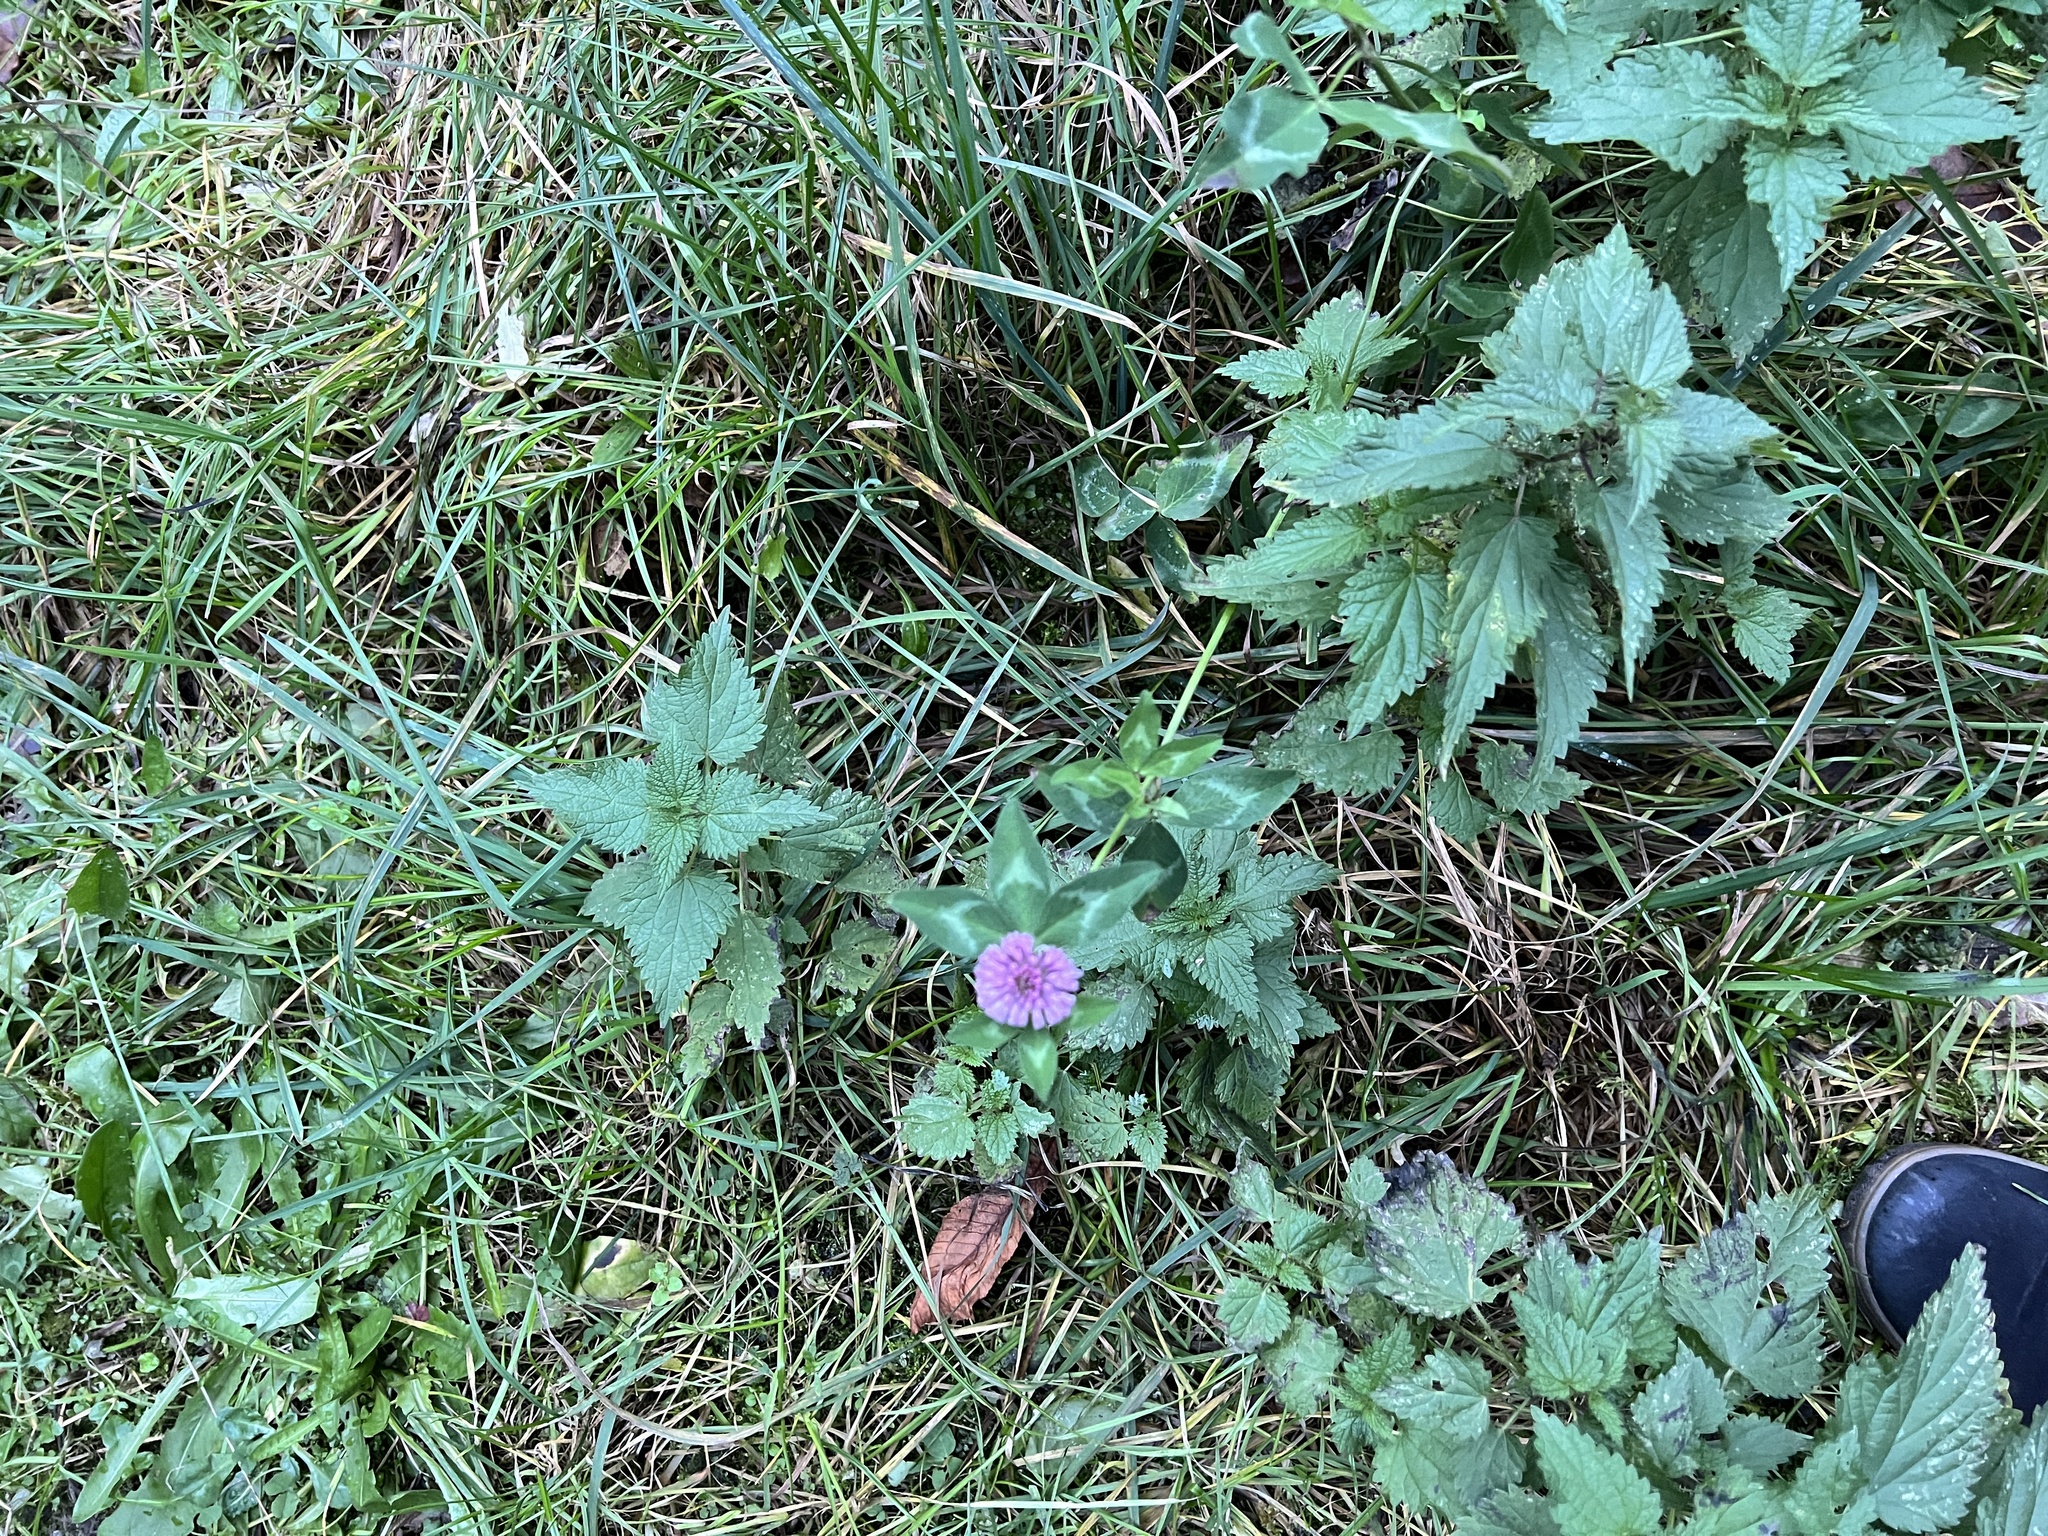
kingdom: Plantae
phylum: Tracheophyta
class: Magnoliopsida
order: Fabales
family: Fabaceae
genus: Trifolium
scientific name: Trifolium pratense
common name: Red clover
